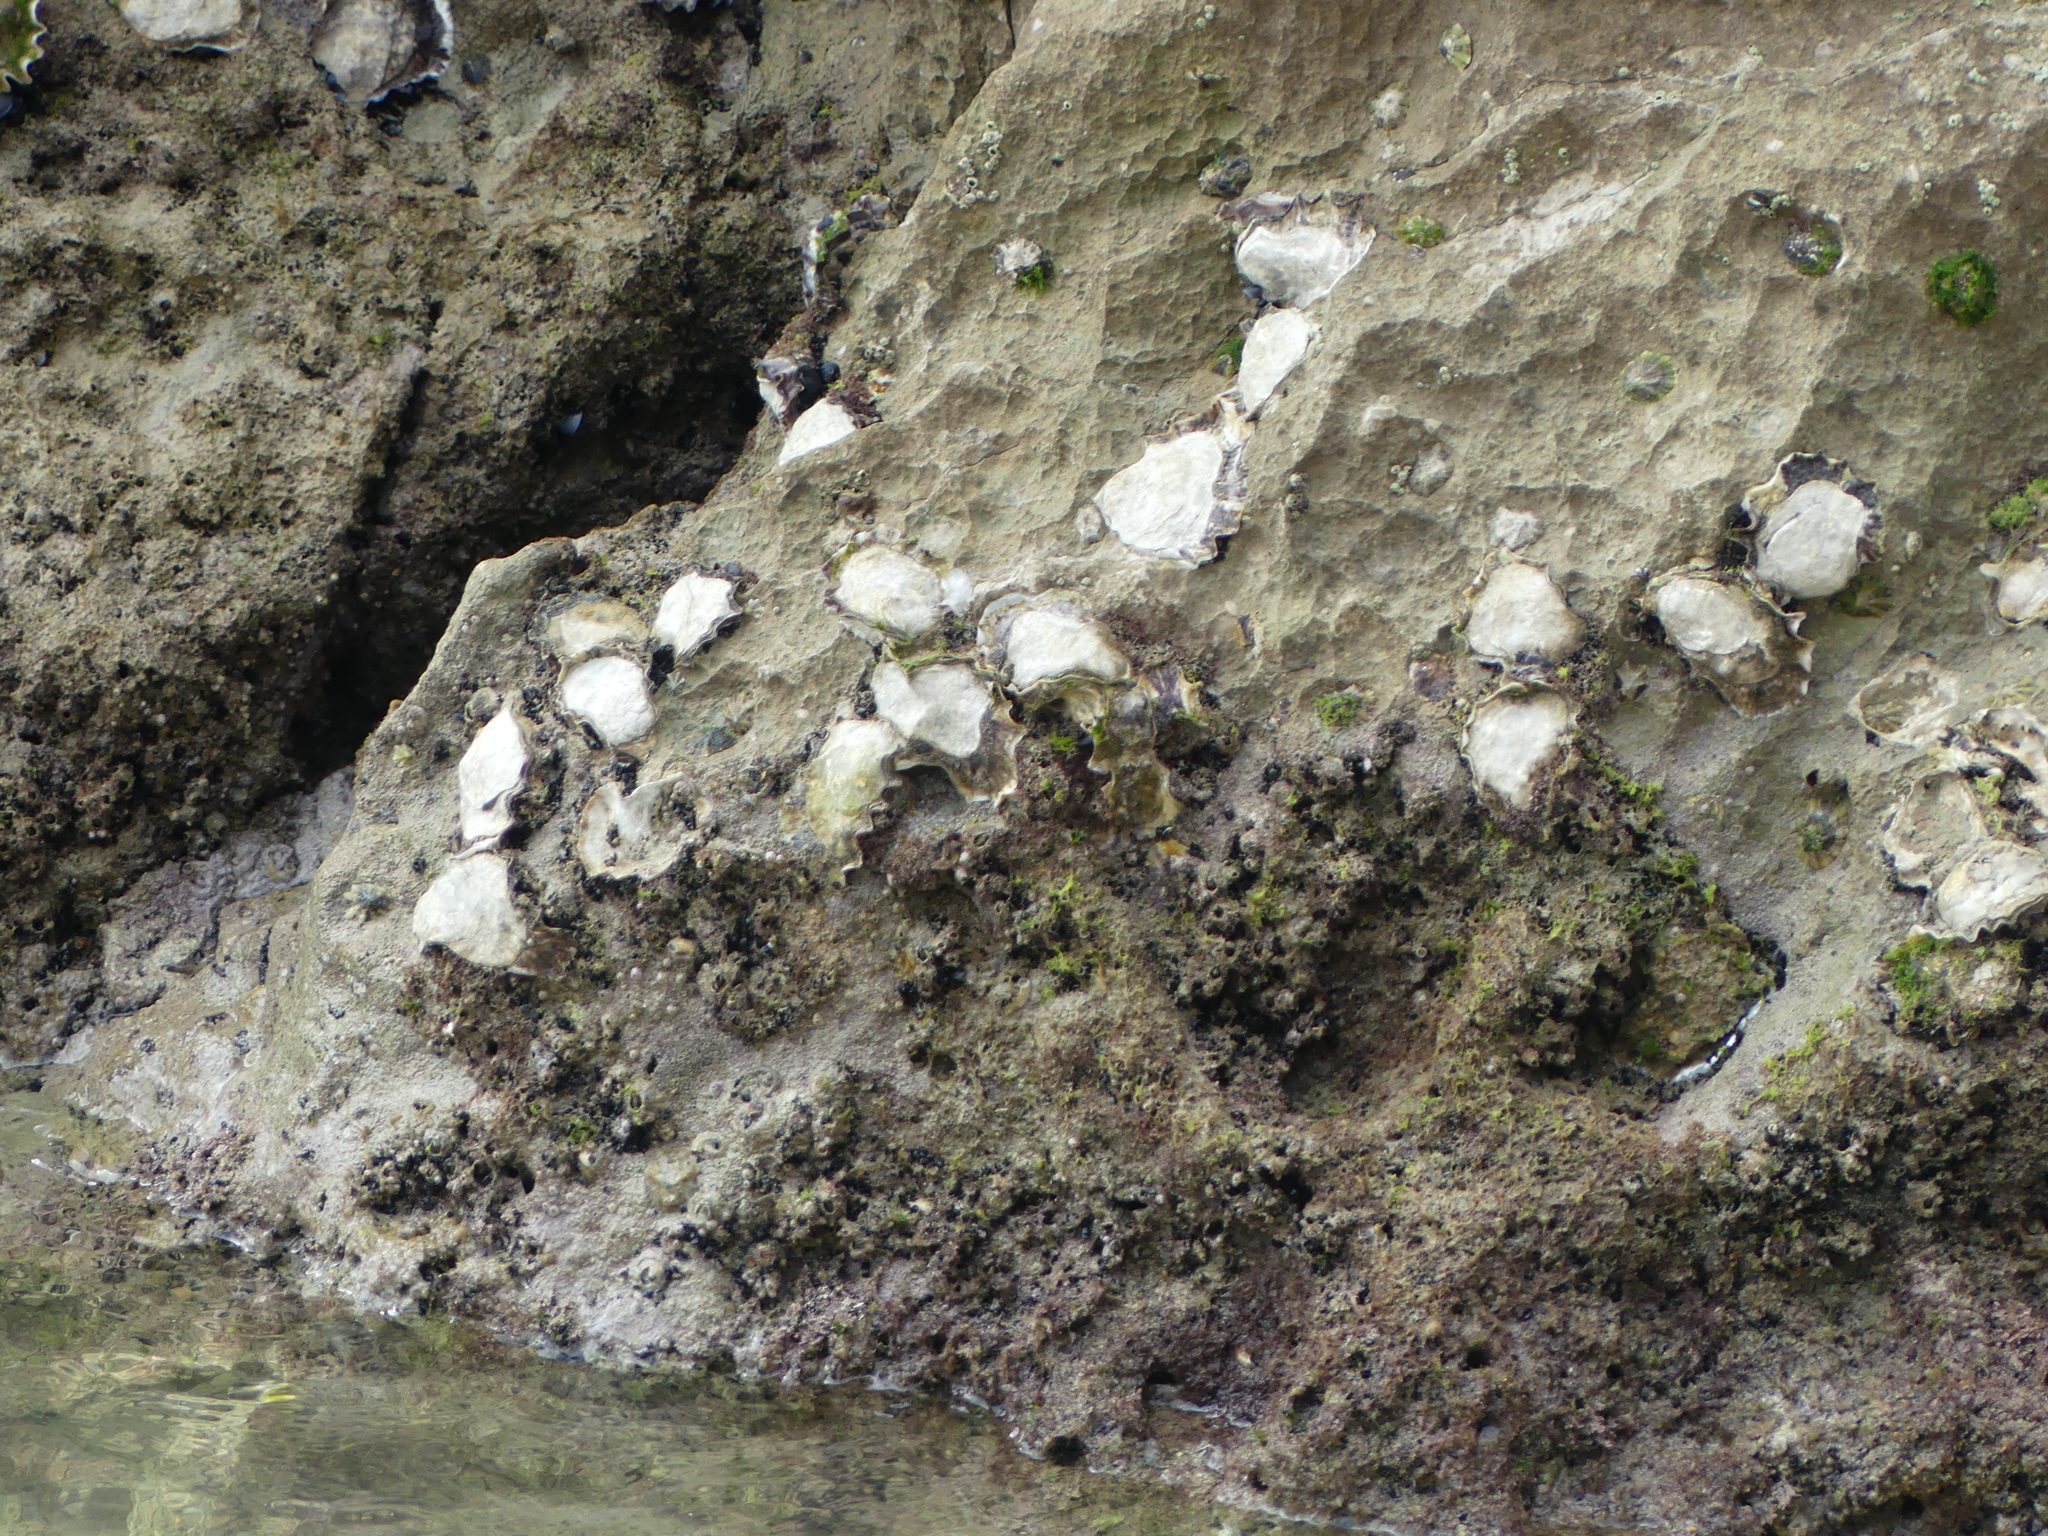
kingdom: Animalia
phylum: Mollusca
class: Bivalvia
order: Ostreida
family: Ostreidae
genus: Magallana
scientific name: Magallana gigas
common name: Pacific oyster
